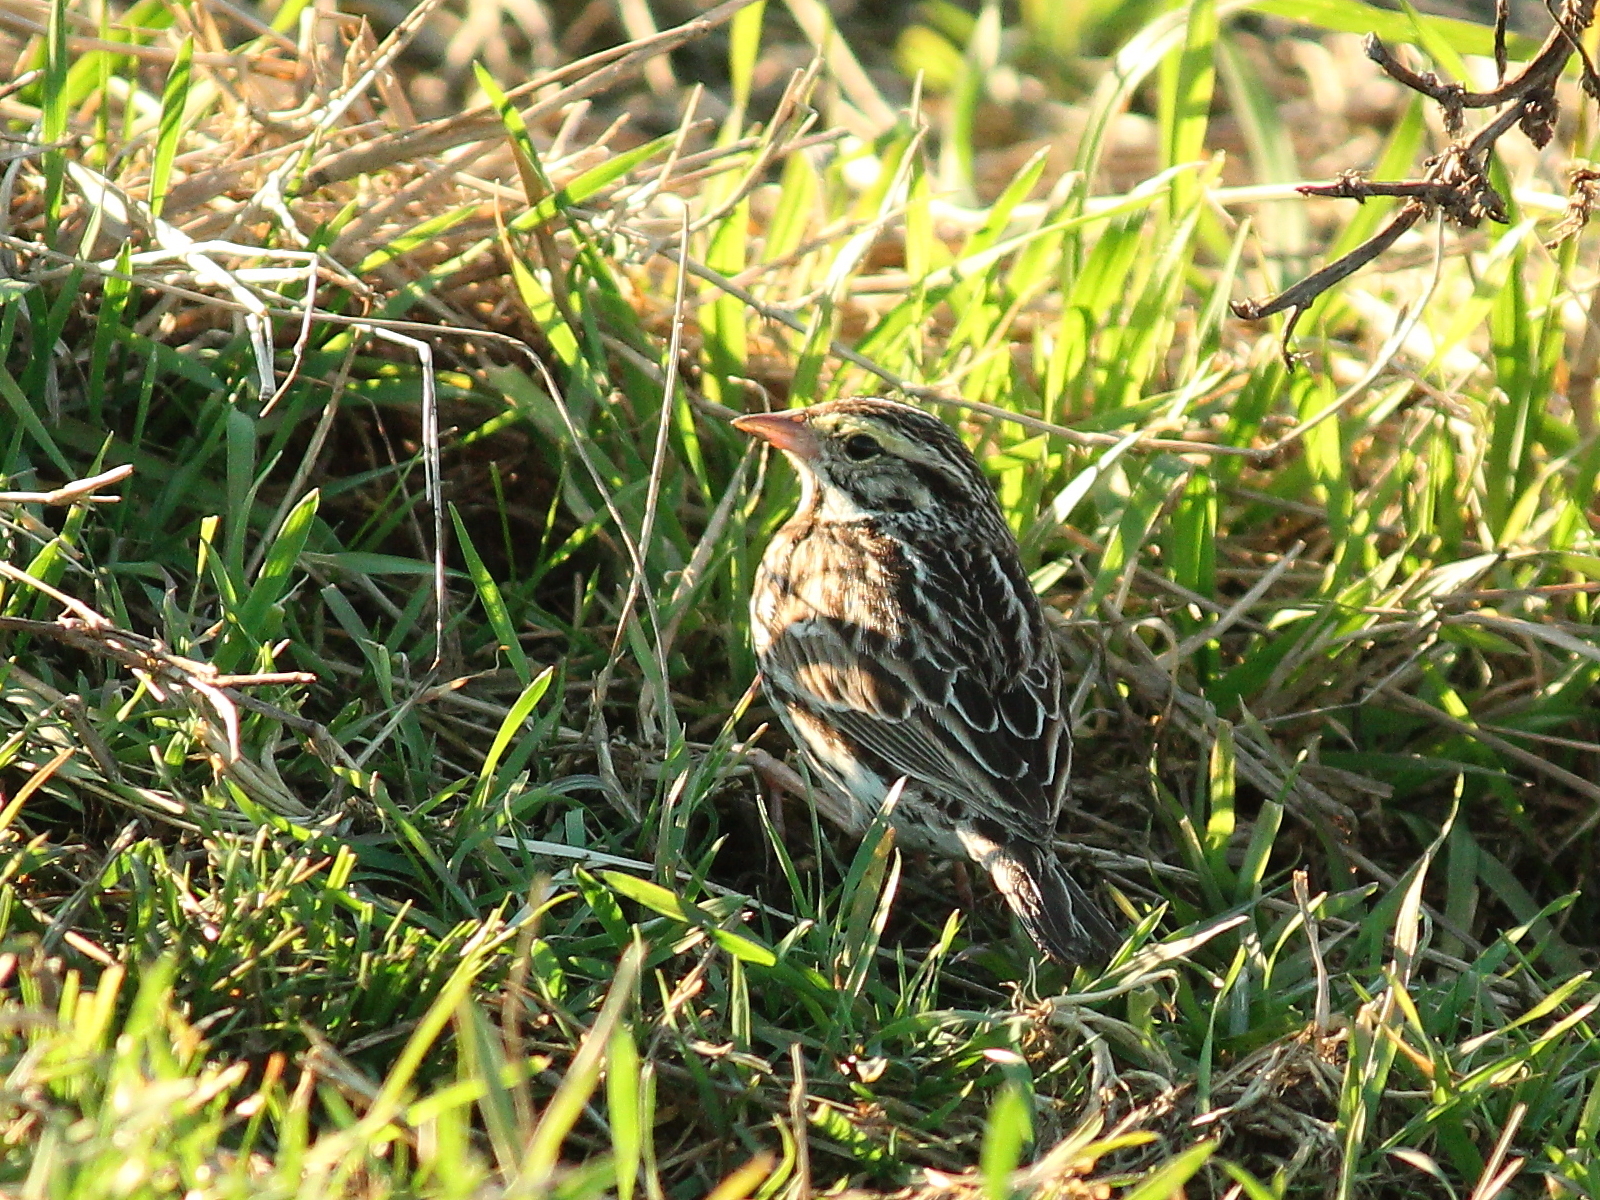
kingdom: Animalia
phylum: Chordata
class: Aves
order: Passeriformes
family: Passerellidae
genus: Passerculus
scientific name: Passerculus sandwichensis
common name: Savannah sparrow
